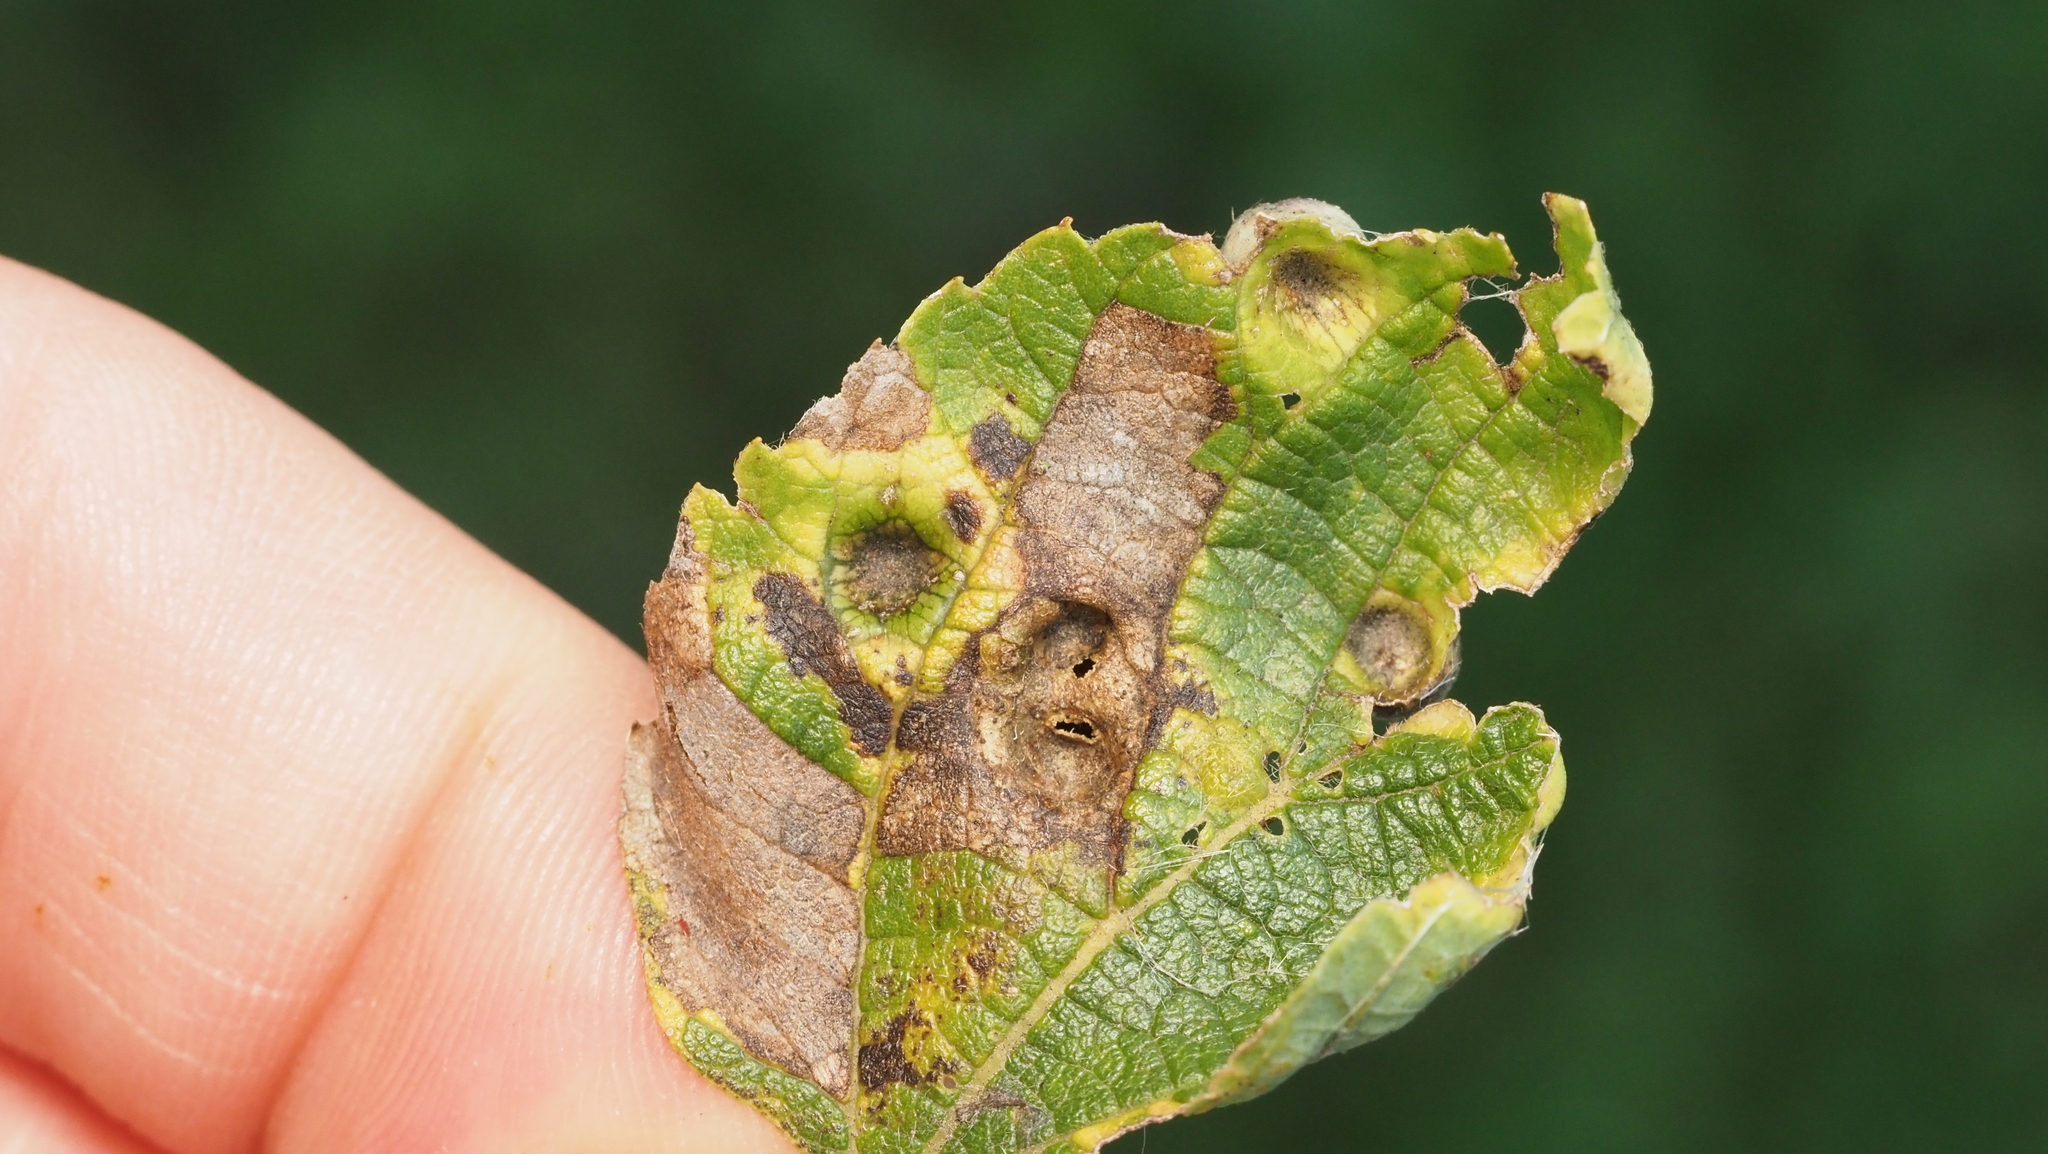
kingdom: Animalia
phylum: Arthropoda
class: Insecta
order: Hemiptera
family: Aphalaridae
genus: Pachypsylla
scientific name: Pachypsylla celtidismamma
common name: Hackberry nipplegall psyllid
